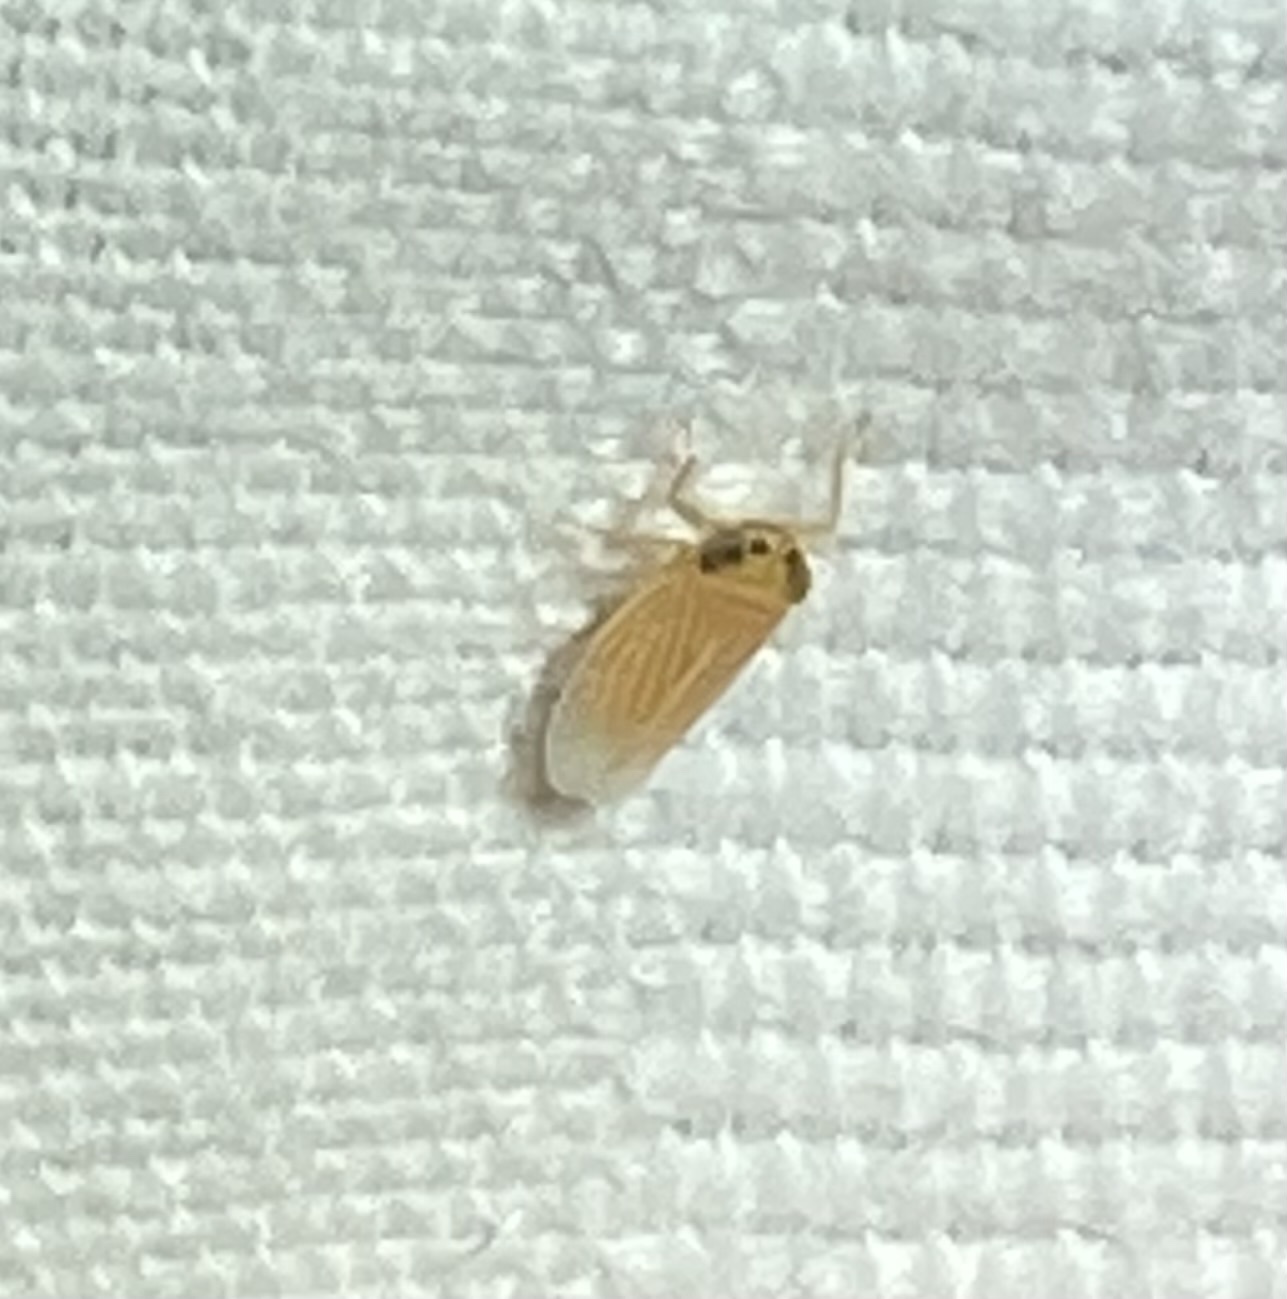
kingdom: Animalia
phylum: Arthropoda
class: Insecta
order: Hemiptera
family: Cicadellidae
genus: Graminella
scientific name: Graminella villicus
